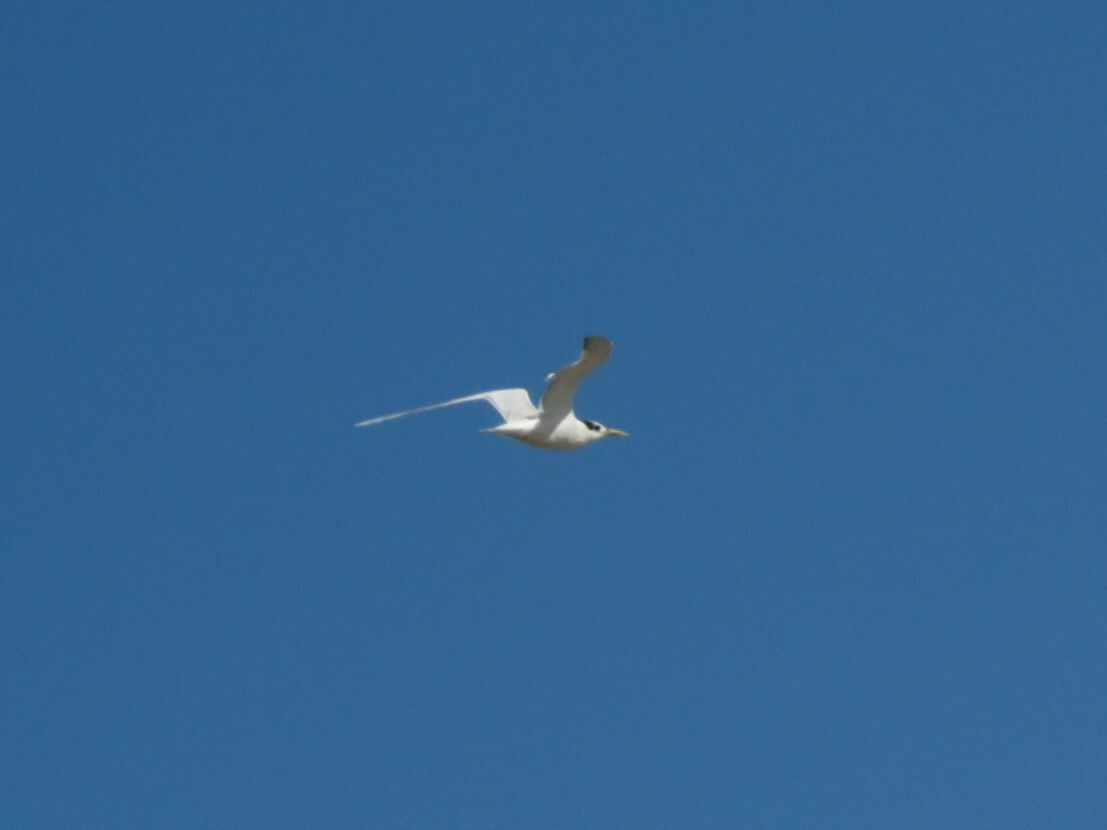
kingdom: Animalia
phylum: Chordata
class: Aves
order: Charadriiformes
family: Laridae
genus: Thalasseus
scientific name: Thalasseus sandvicensis
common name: Sandwich tern
